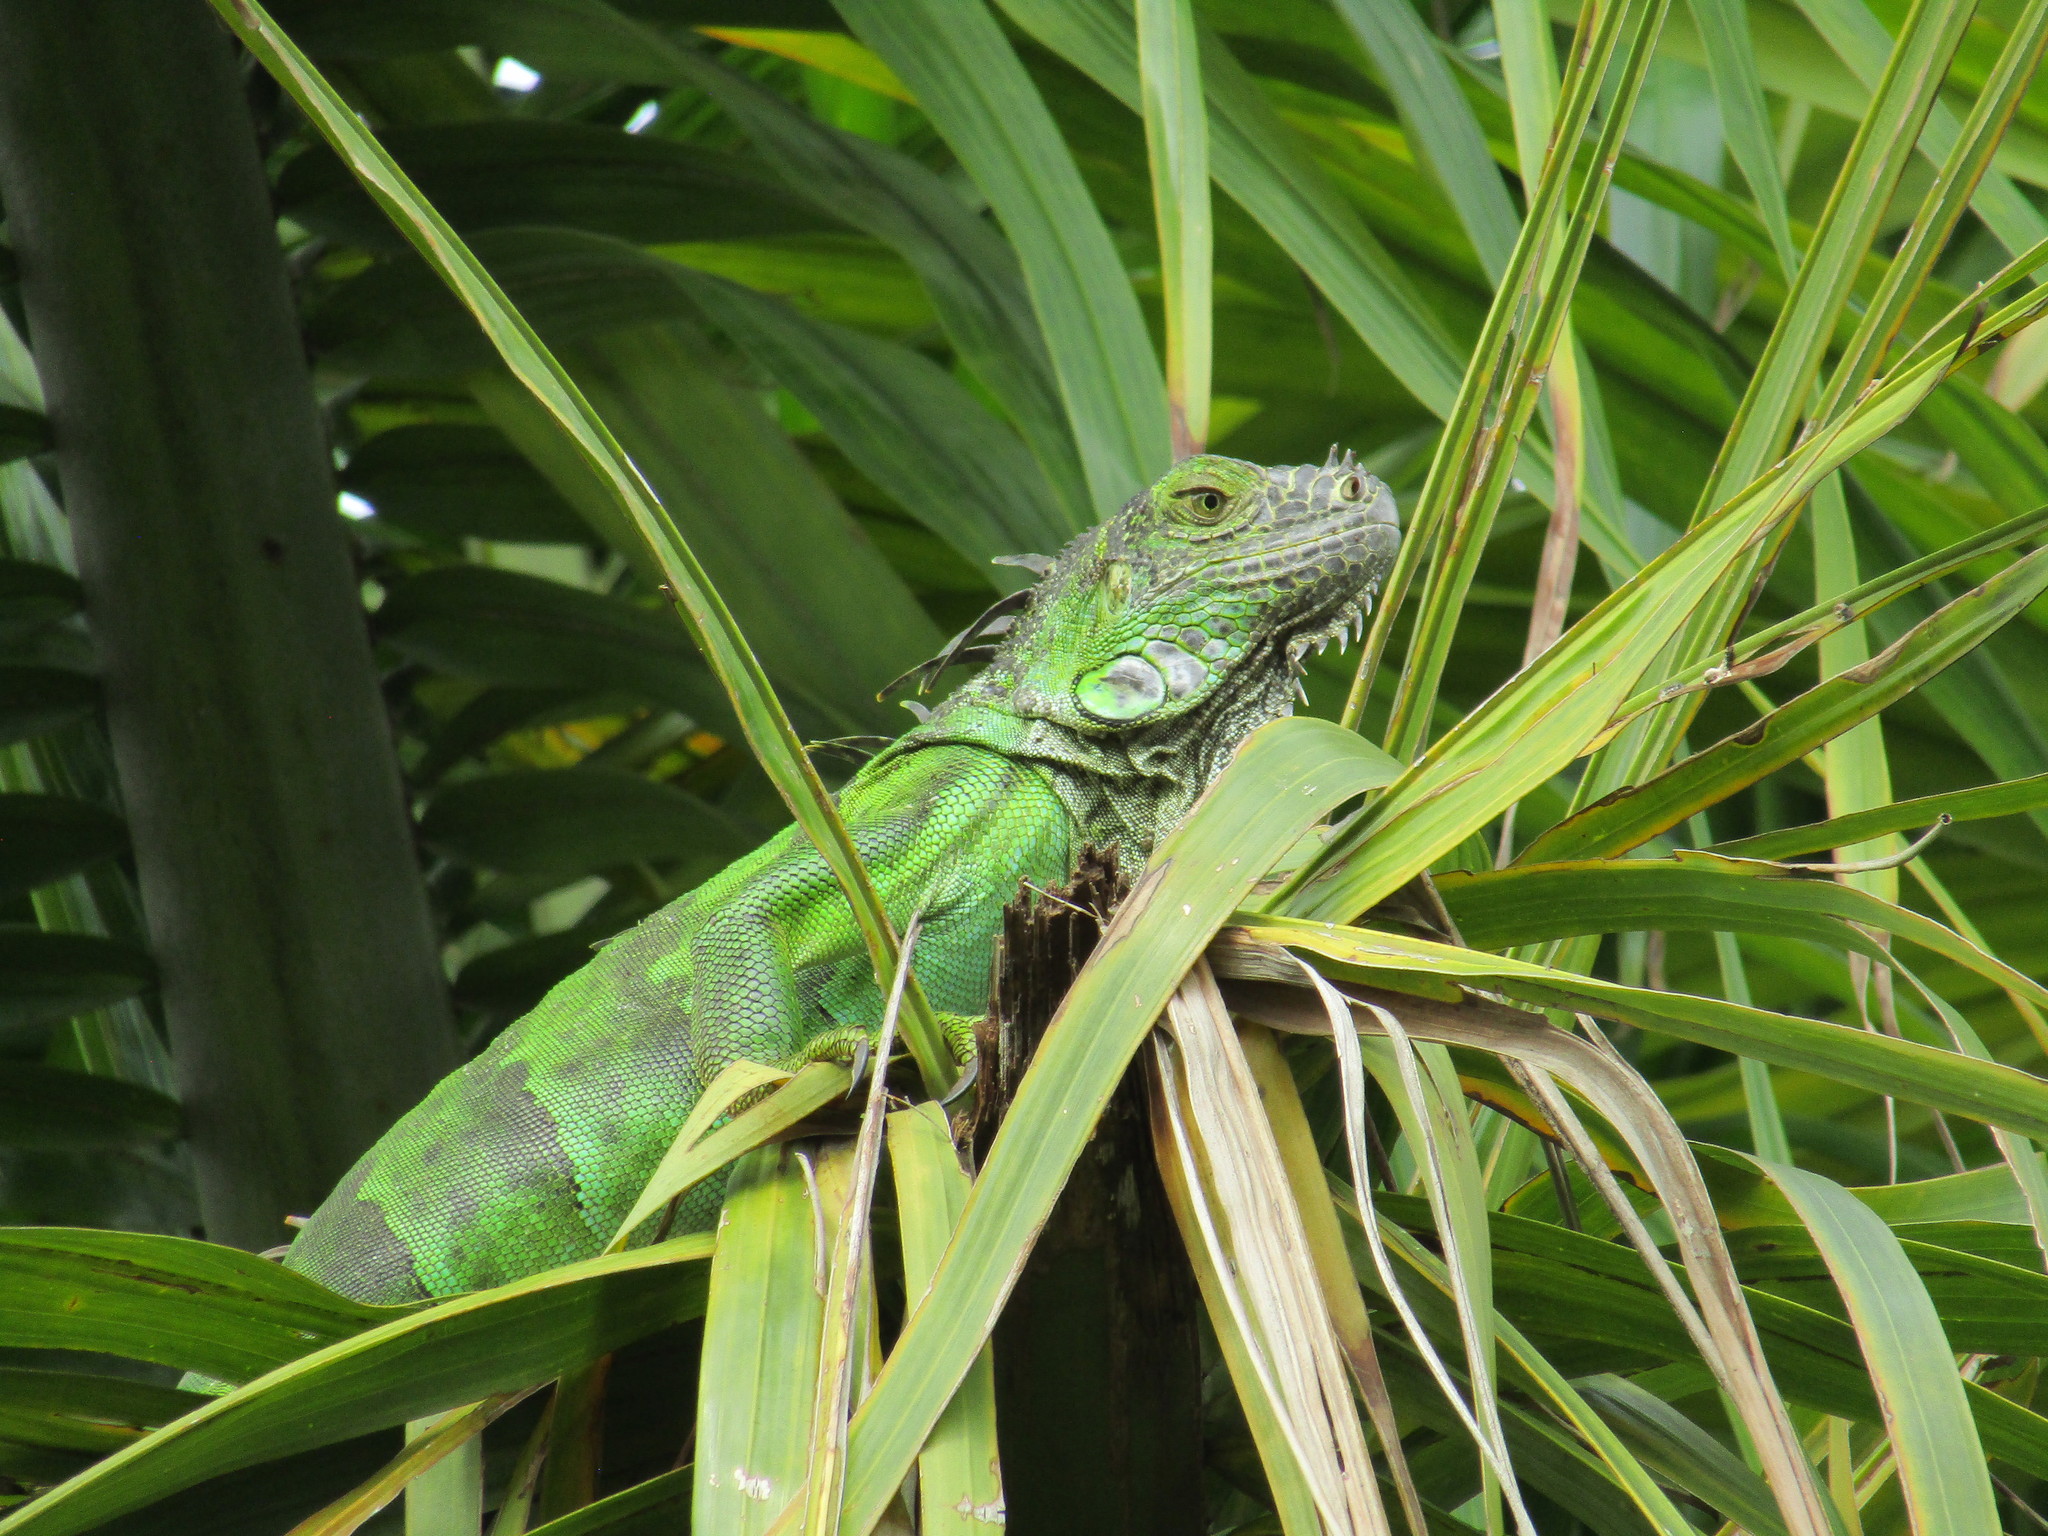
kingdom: Animalia
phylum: Chordata
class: Squamata
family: Iguanidae
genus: Iguana
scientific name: Iguana iguana
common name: Green iguana
